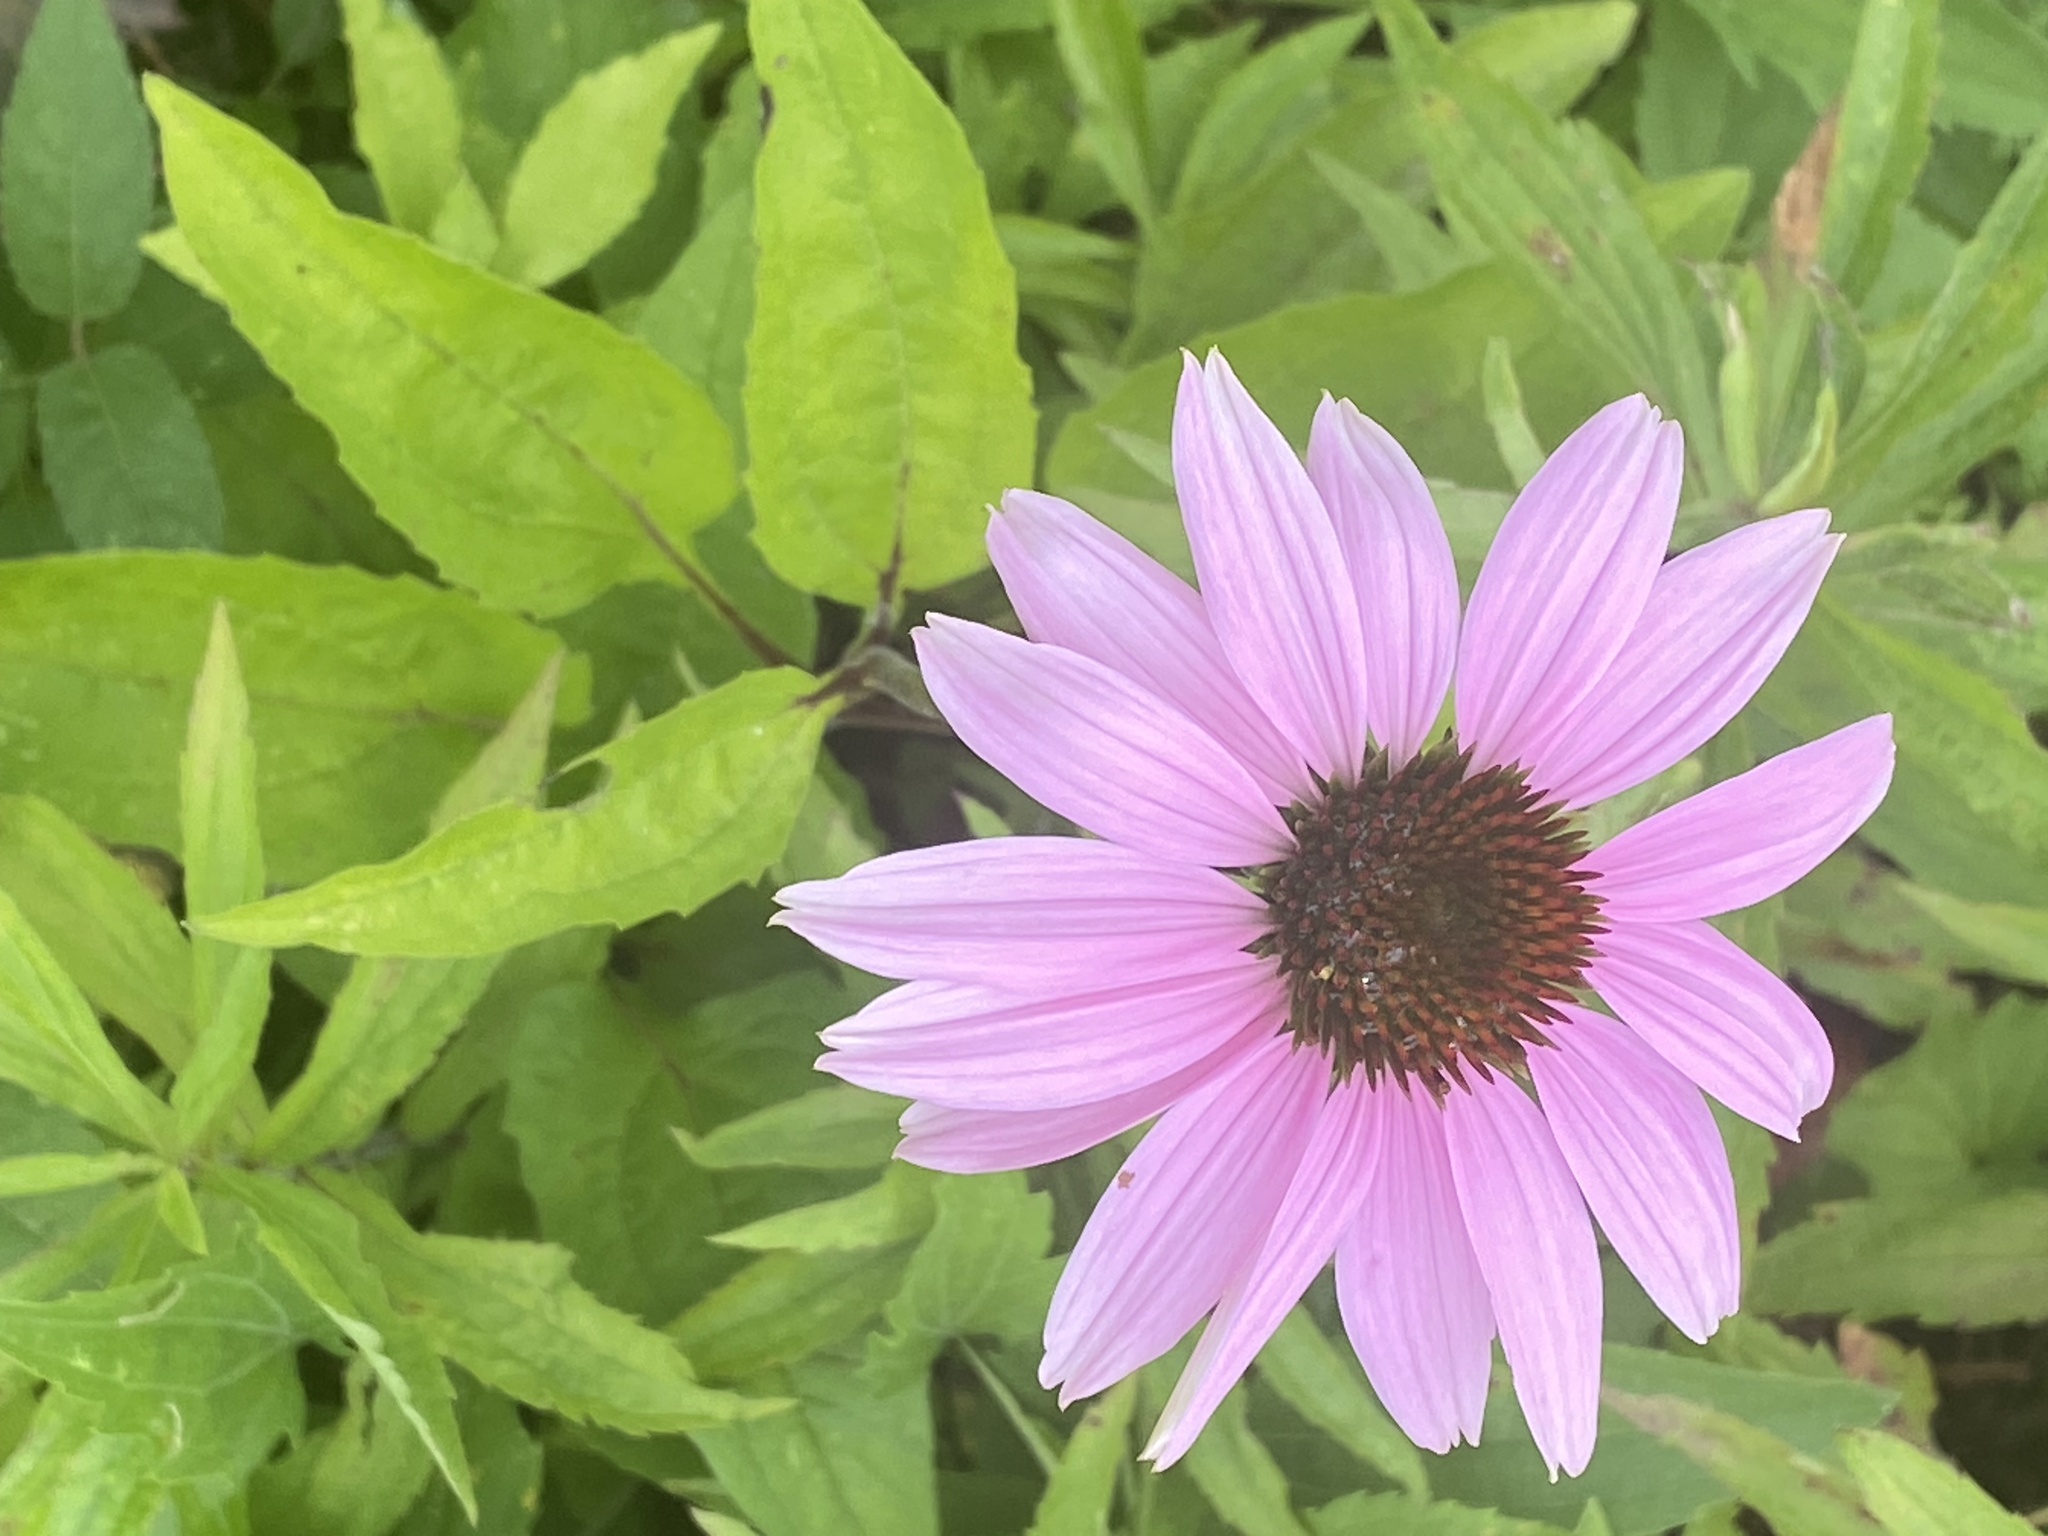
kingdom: Plantae
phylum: Tracheophyta
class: Magnoliopsida
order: Asterales
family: Asteraceae
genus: Echinacea
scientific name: Echinacea purpurea
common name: Broad-leaved purple coneflower
